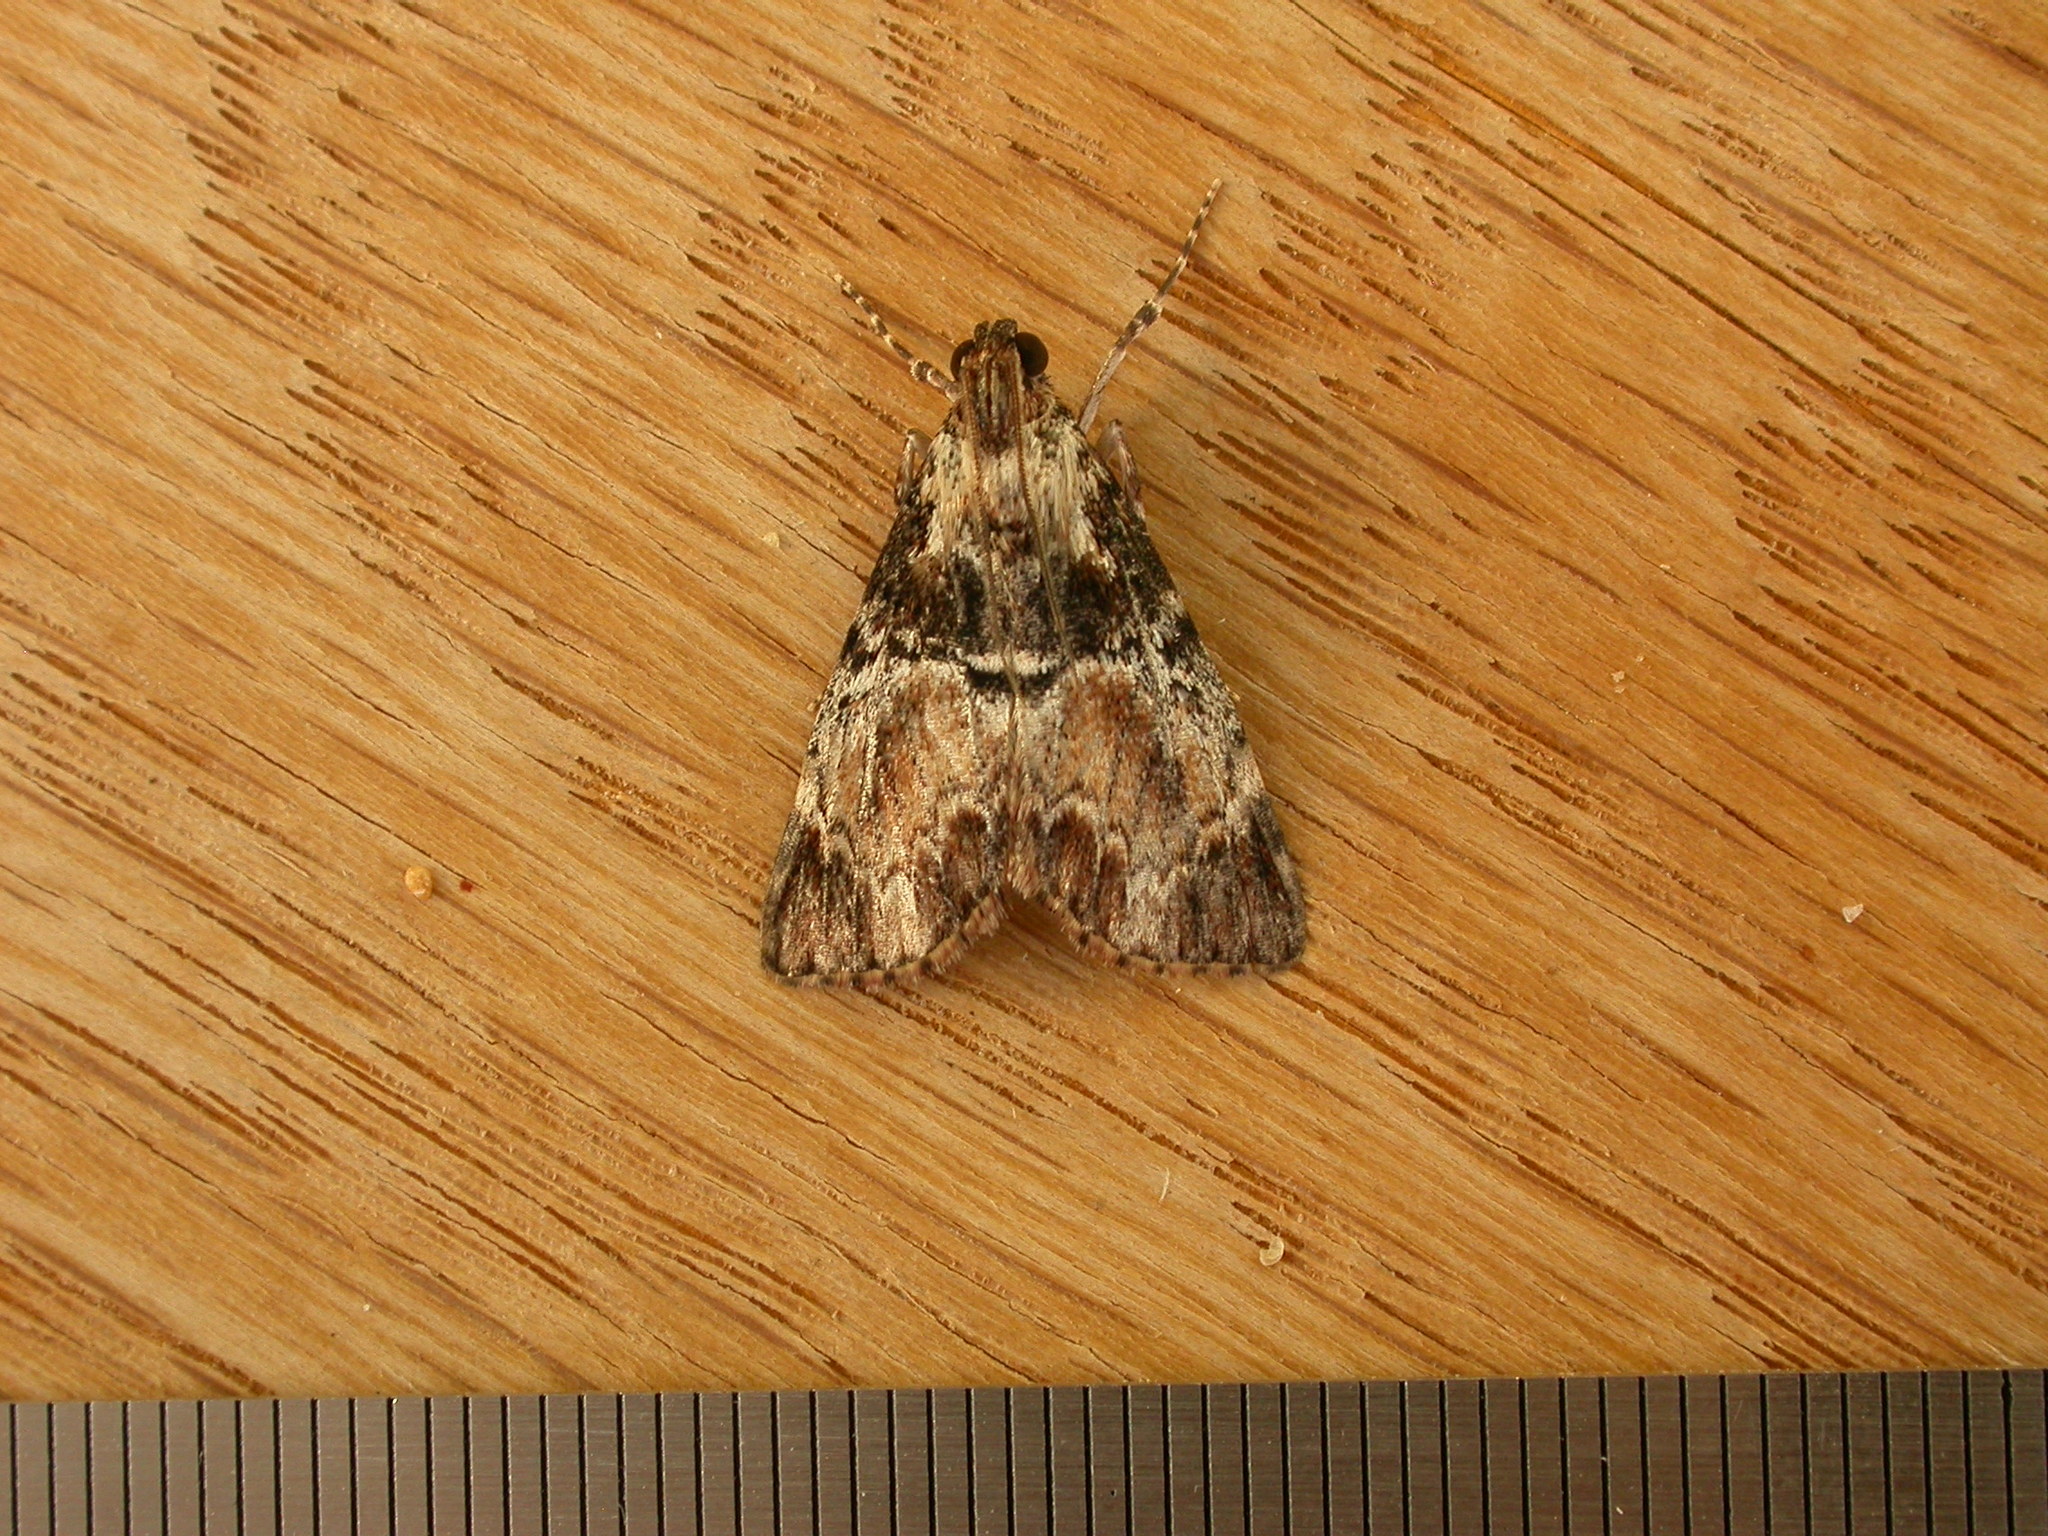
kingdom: Animalia
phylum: Arthropoda
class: Insecta
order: Lepidoptera
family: Pyralidae
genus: Orthaga
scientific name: Orthaga thyrisalis
